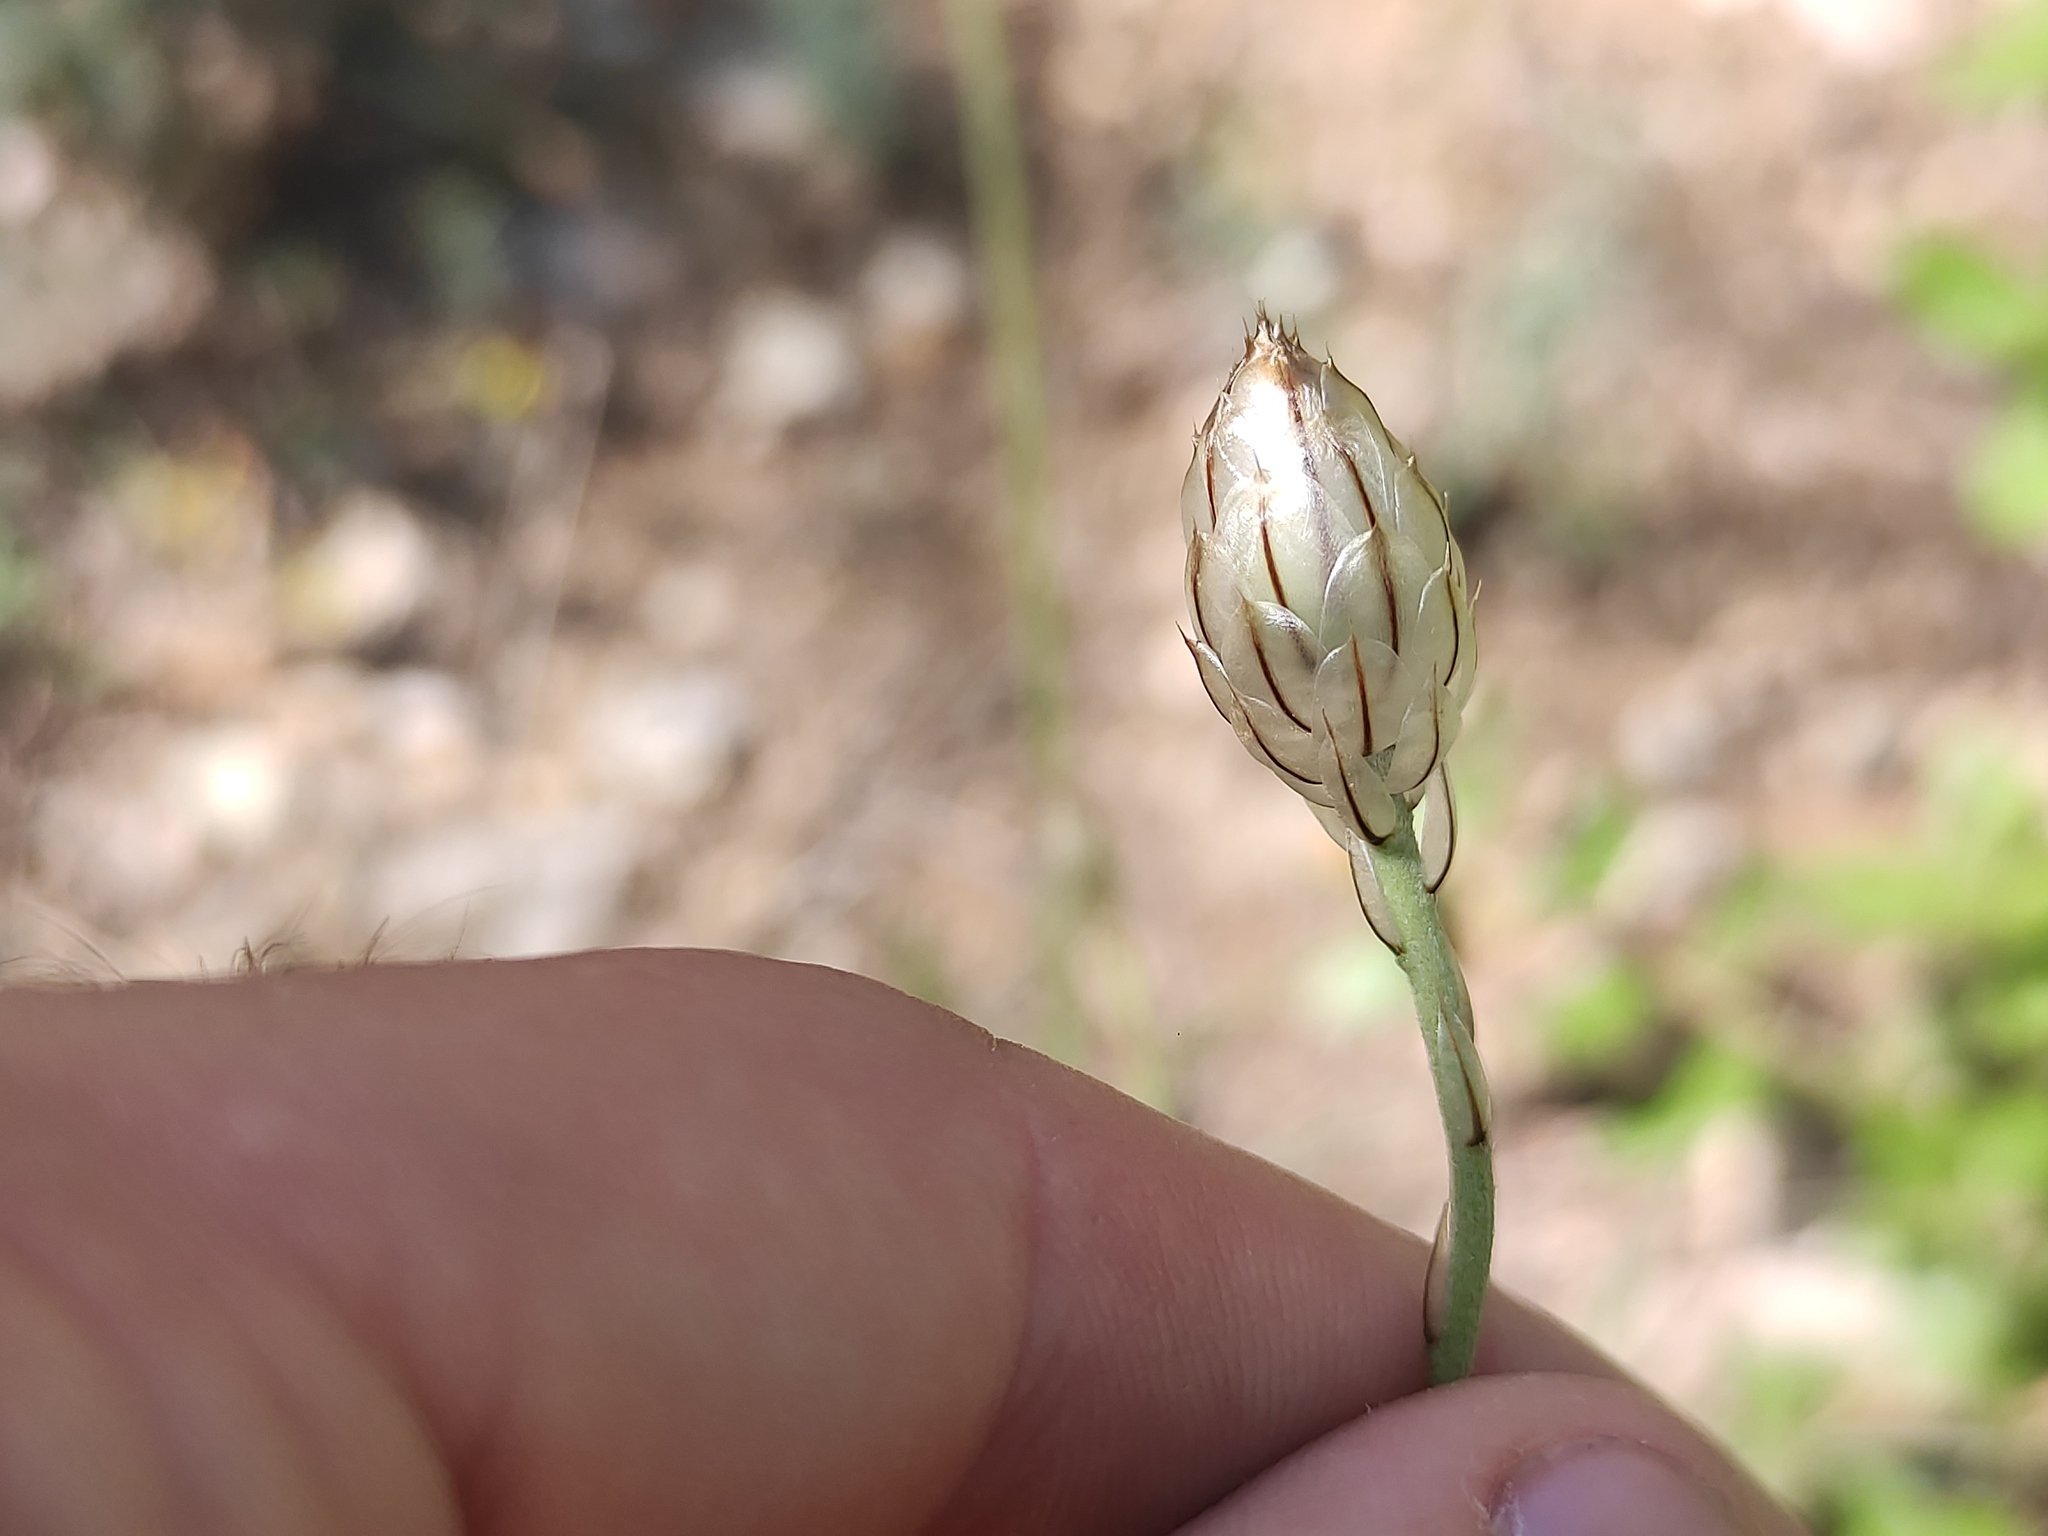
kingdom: Plantae
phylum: Tracheophyta
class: Magnoliopsida
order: Asterales
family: Asteraceae
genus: Catananche
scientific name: Catananche caerulea
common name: Blue cupidone
